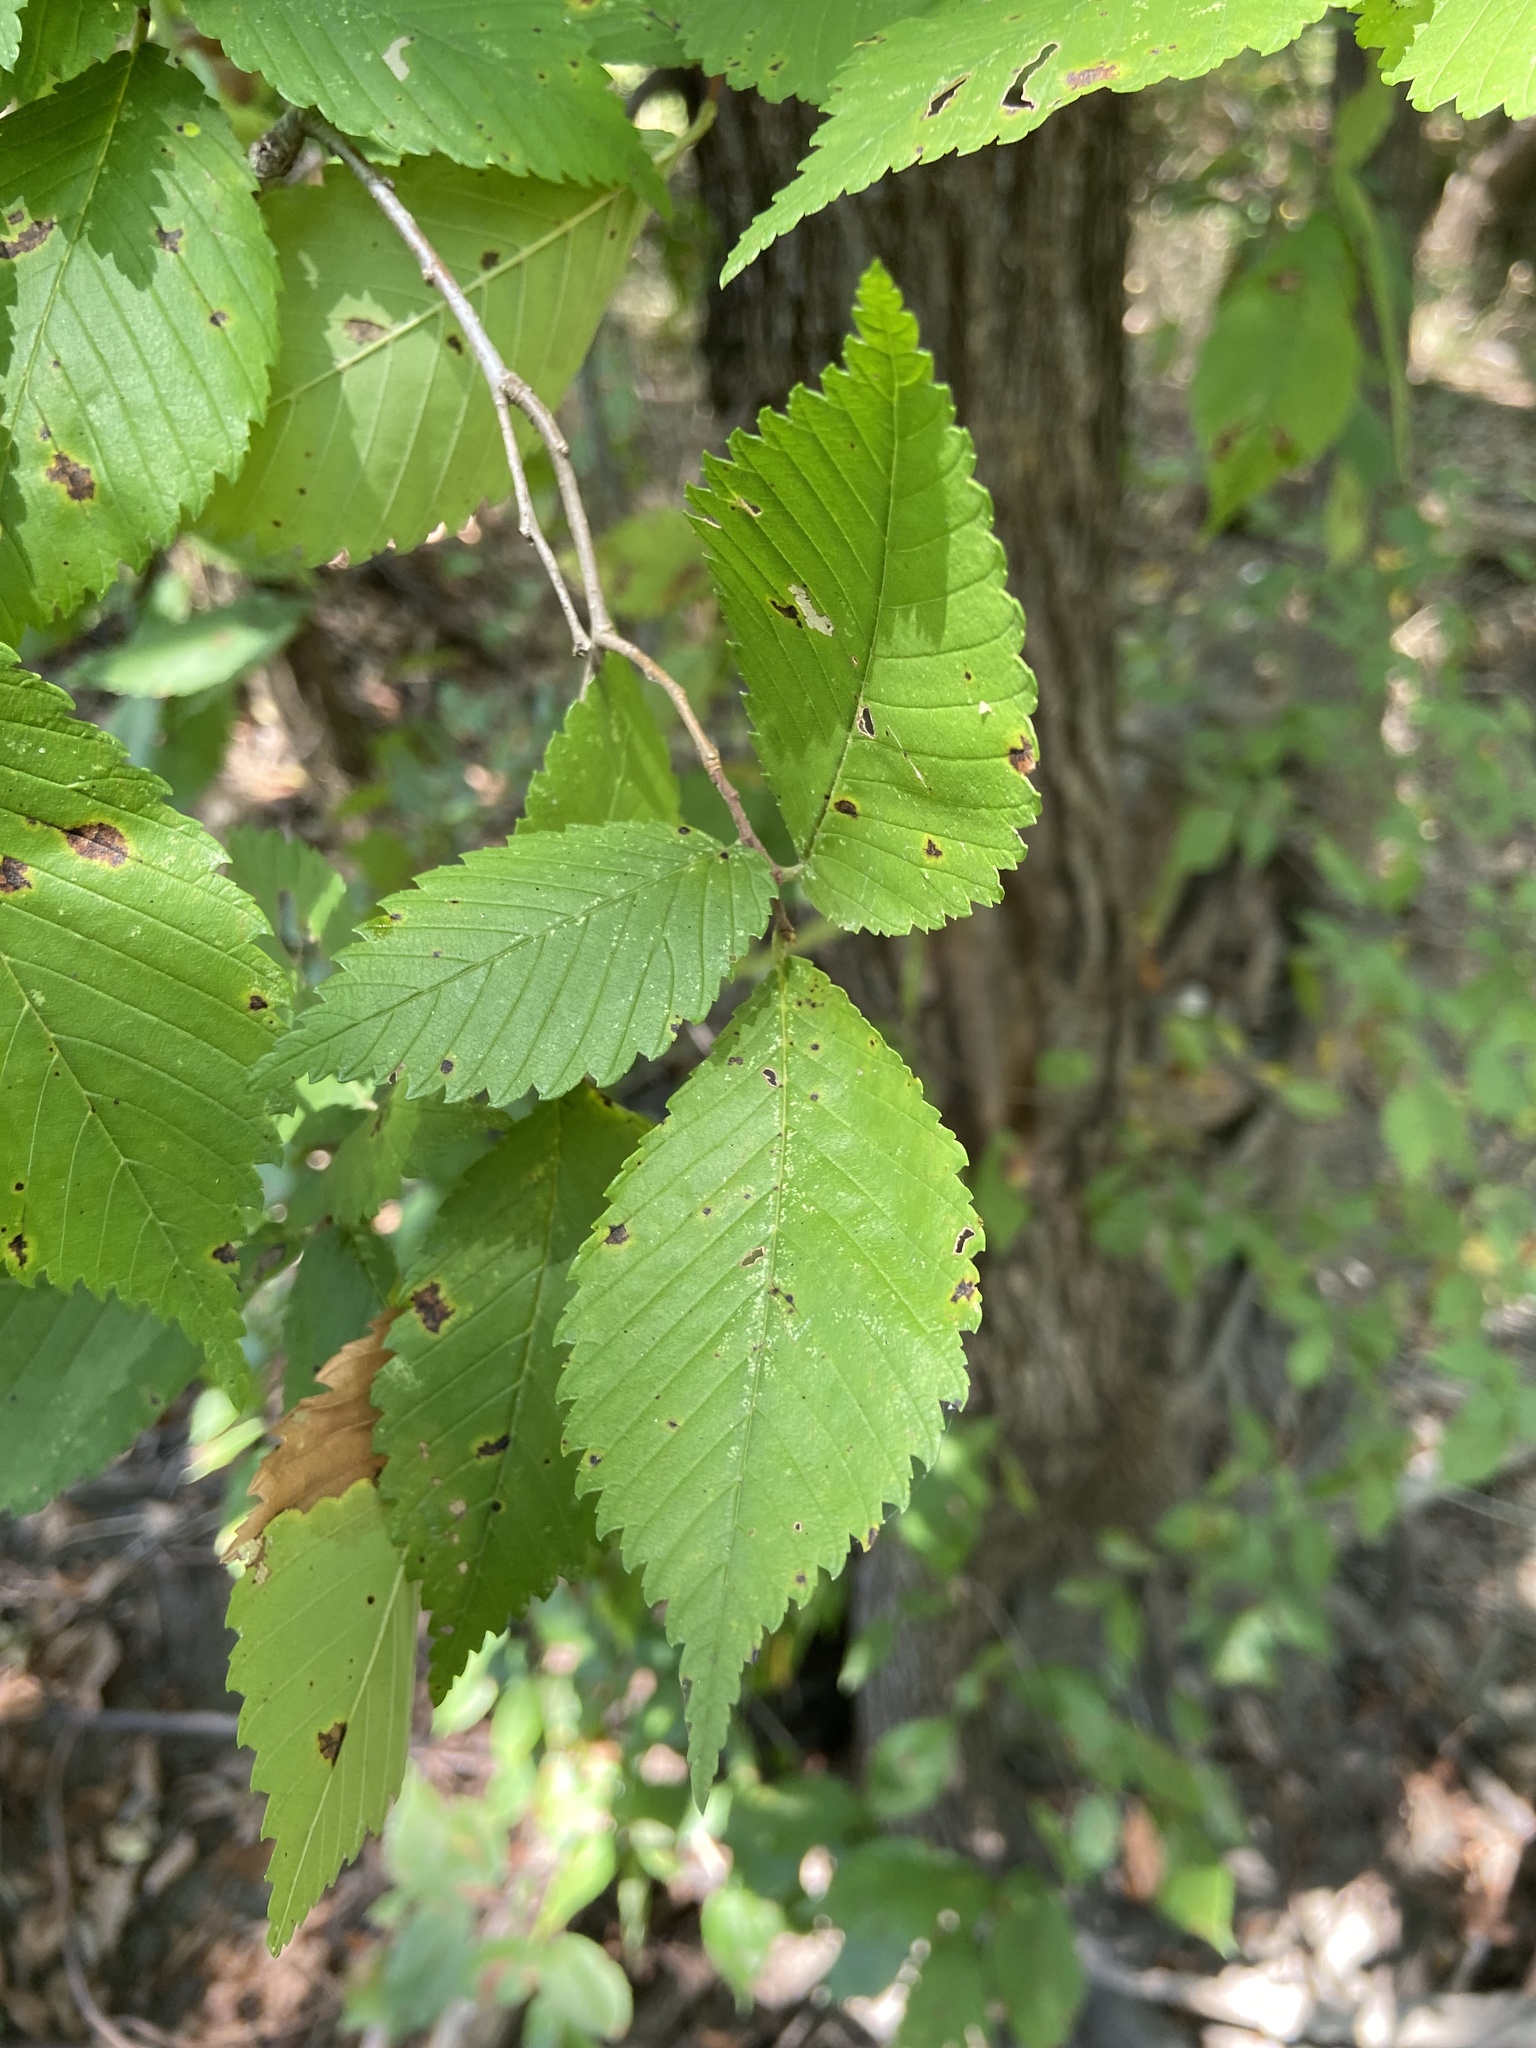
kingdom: Plantae
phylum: Tracheophyta
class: Magnoliopsida
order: Rosales
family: Ulmaceae
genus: Ulmus
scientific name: Ulmus americana
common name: American elm
